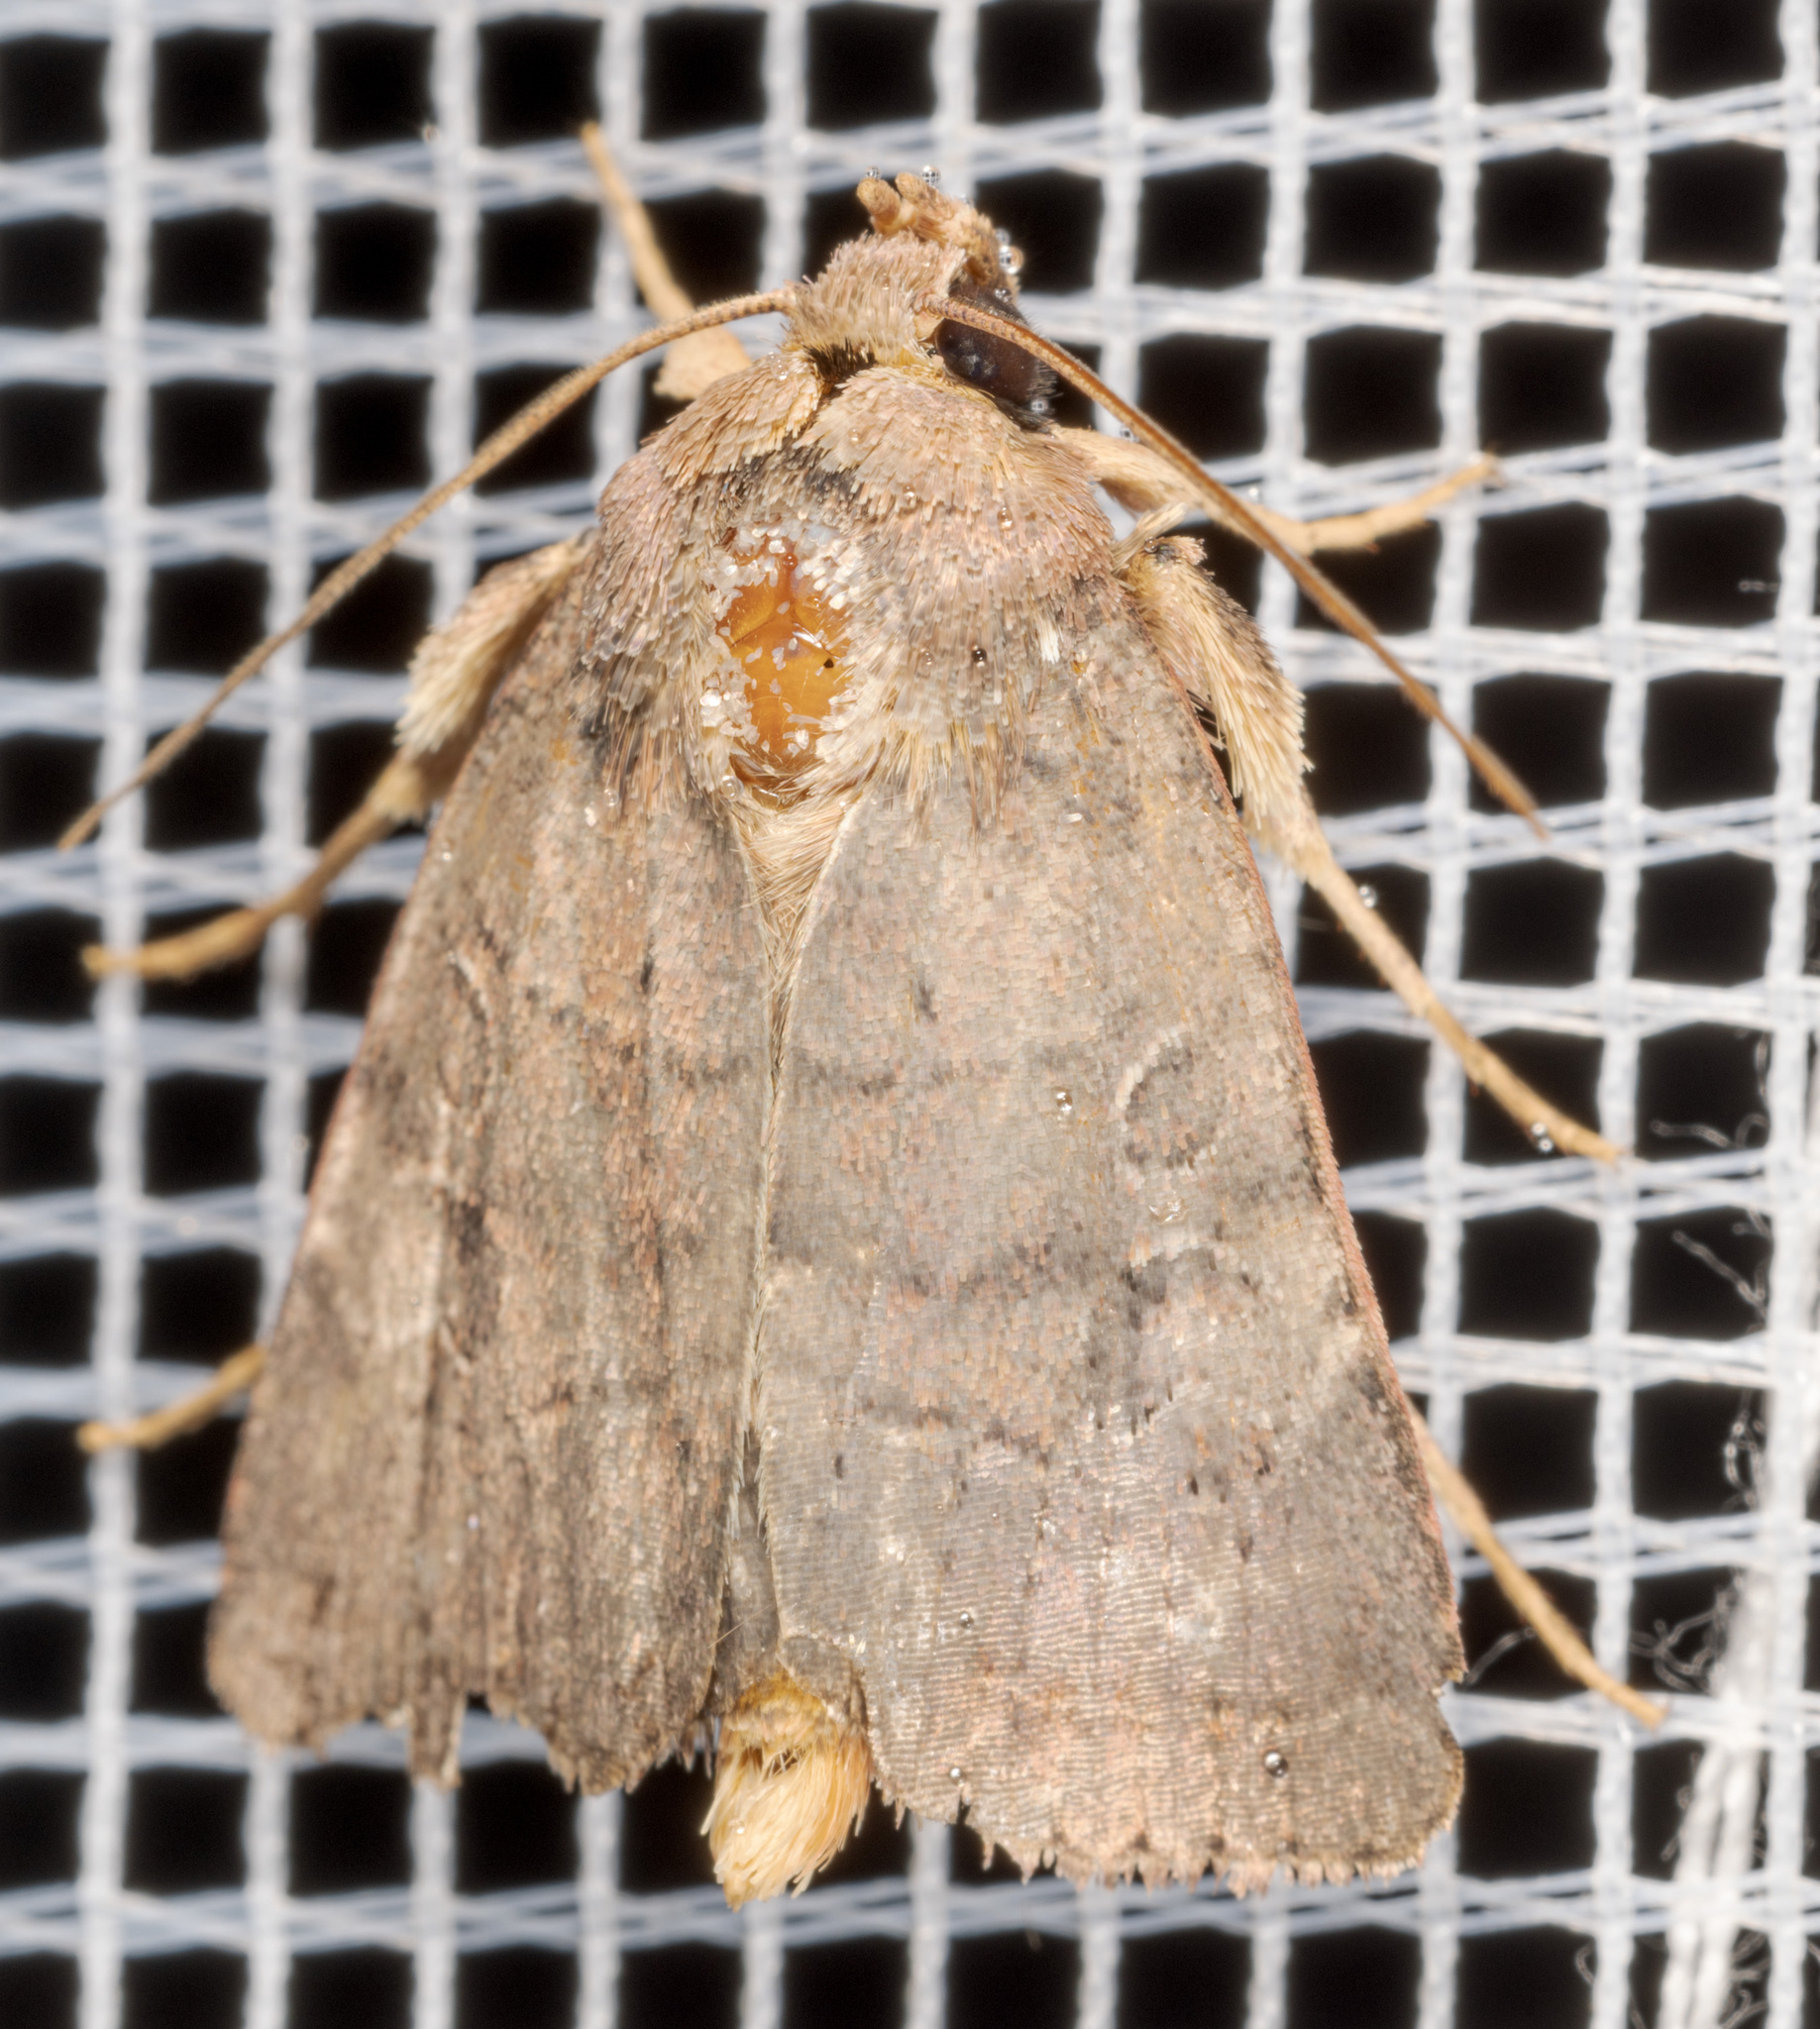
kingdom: Animalia
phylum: Arthropoda
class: Insecta
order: Lepidoptera
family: Noctuidae
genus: Orthodes
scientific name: Orthodes furtiva
